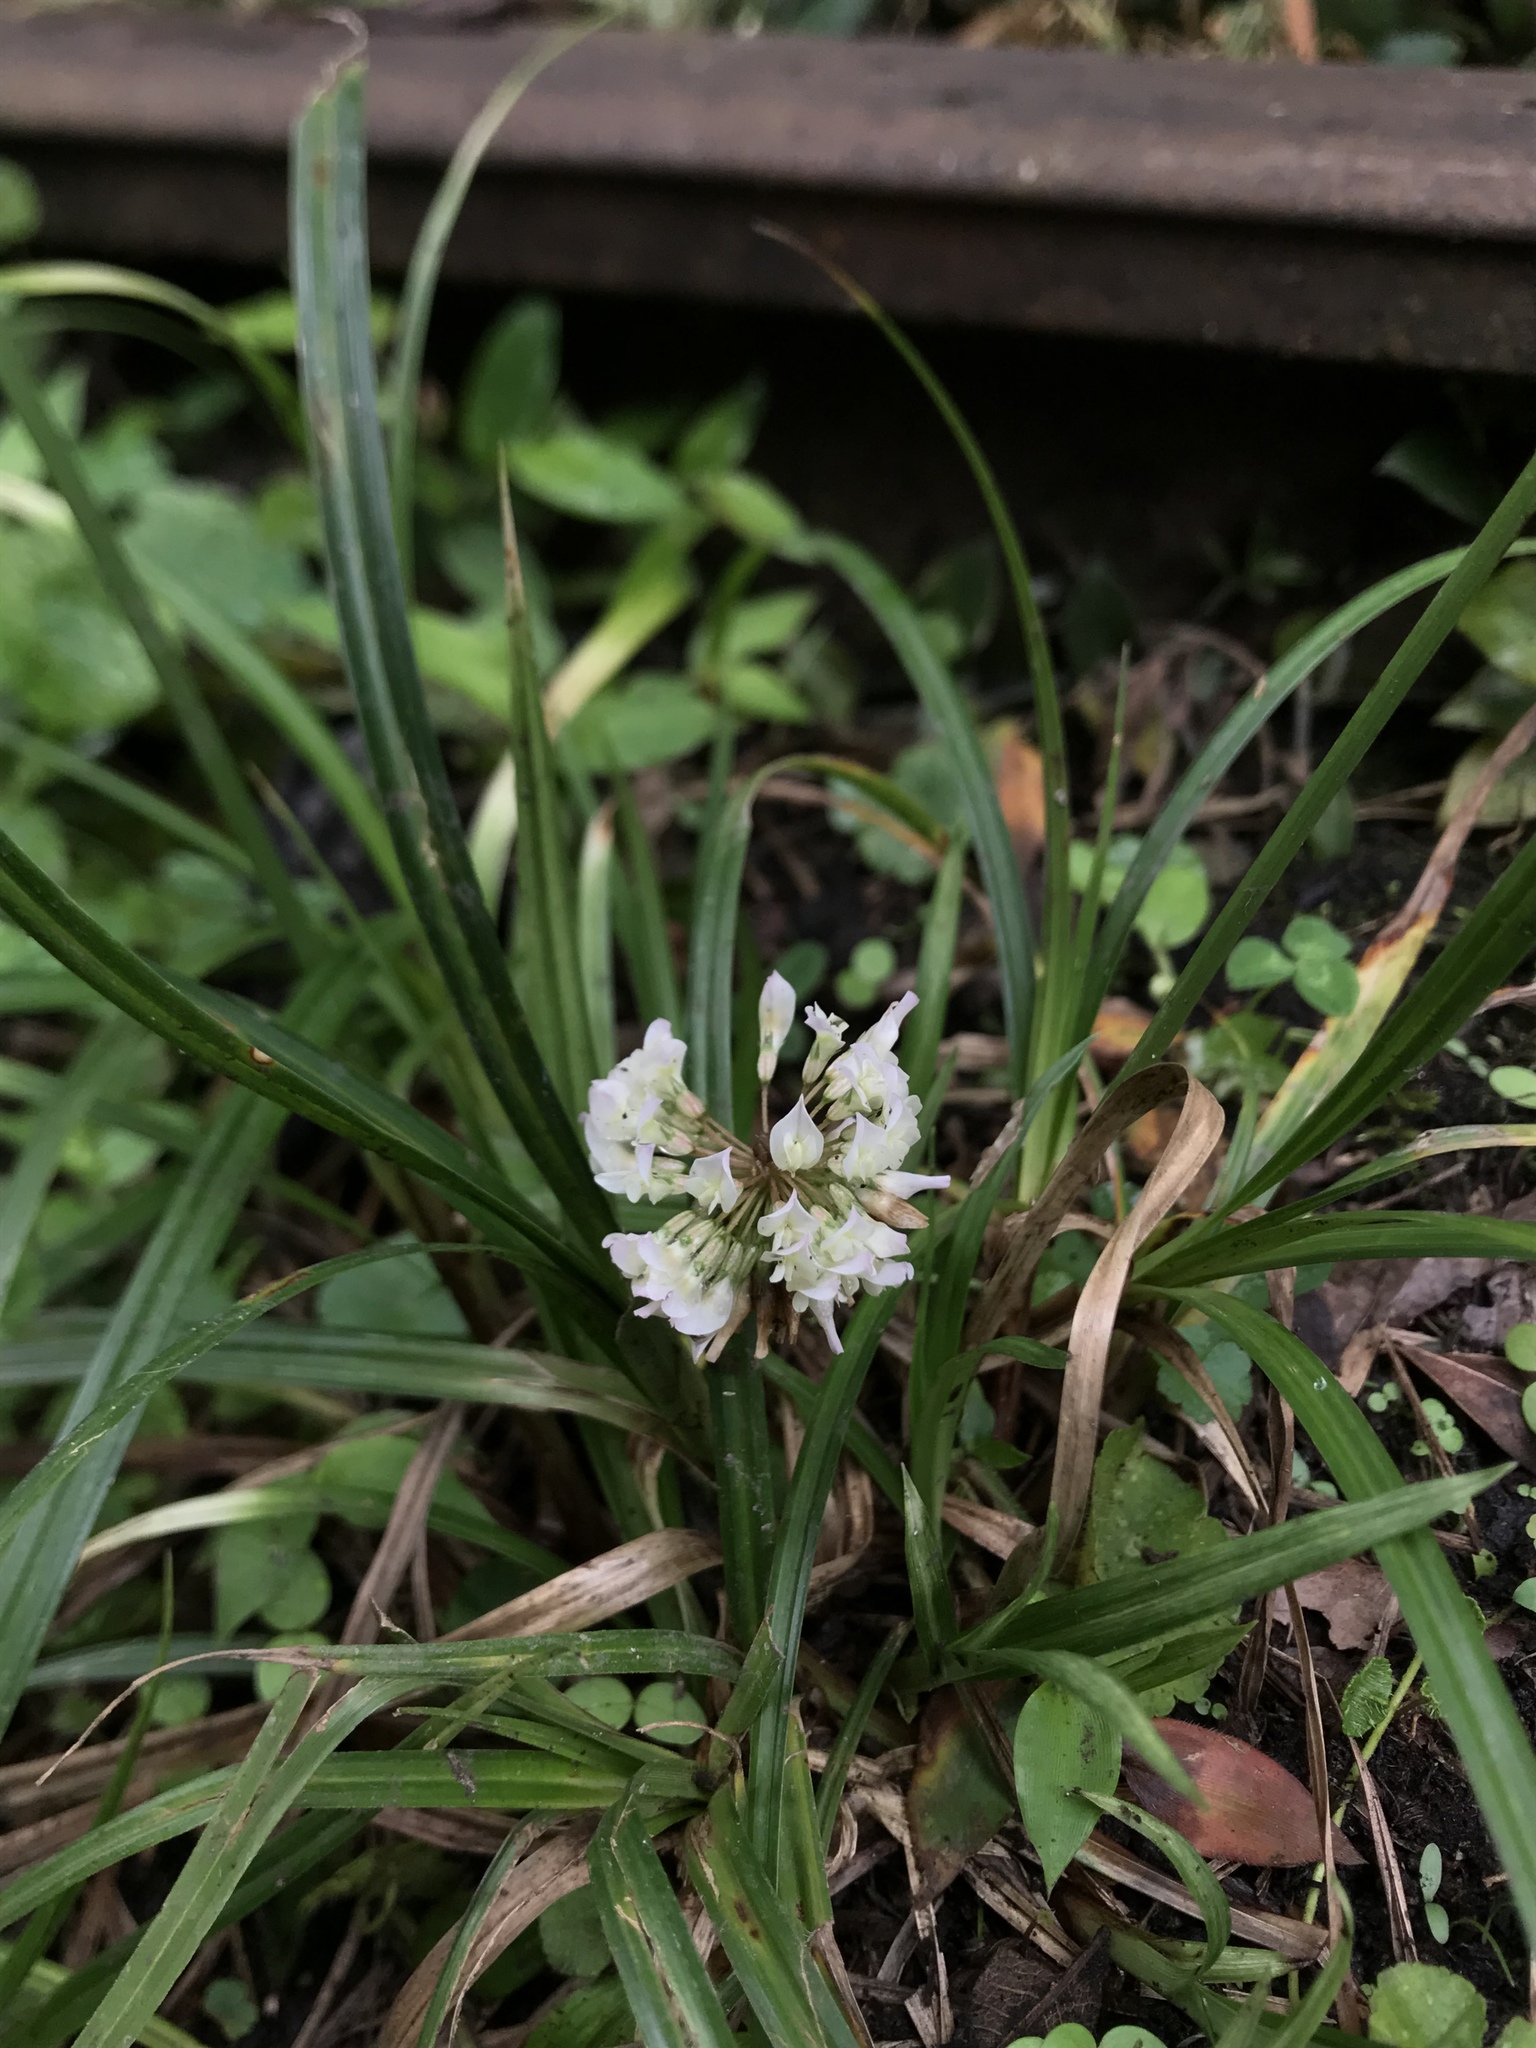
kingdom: Plantae
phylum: Tracheophyta
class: Magnoliopsida
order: Fabales
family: Fabaceae
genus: Trifolium
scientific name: Trifolium repens
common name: White clover
